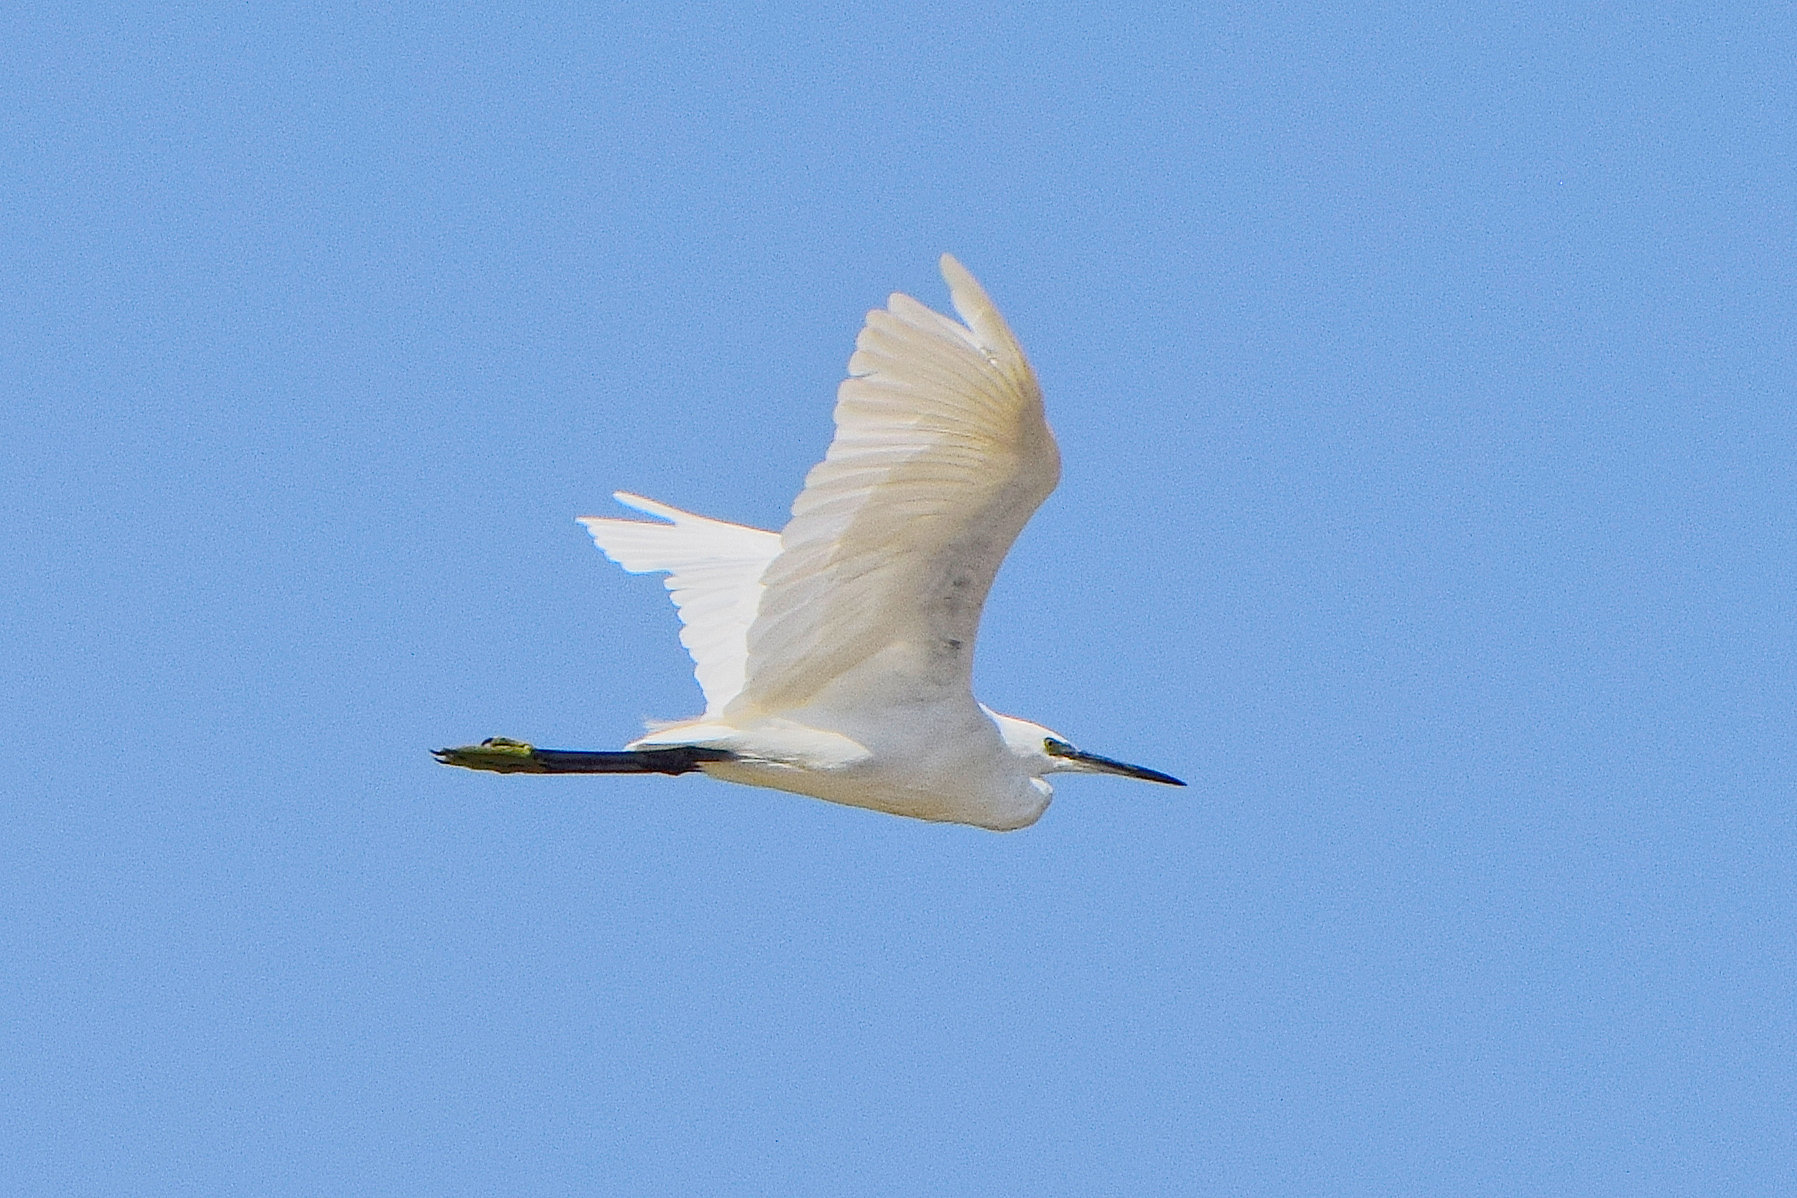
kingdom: Animalia
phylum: Chordata
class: Aves
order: Pelecaniformes
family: Ardeidae
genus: Egretta
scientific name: Egretta garzetta
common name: Little egret
